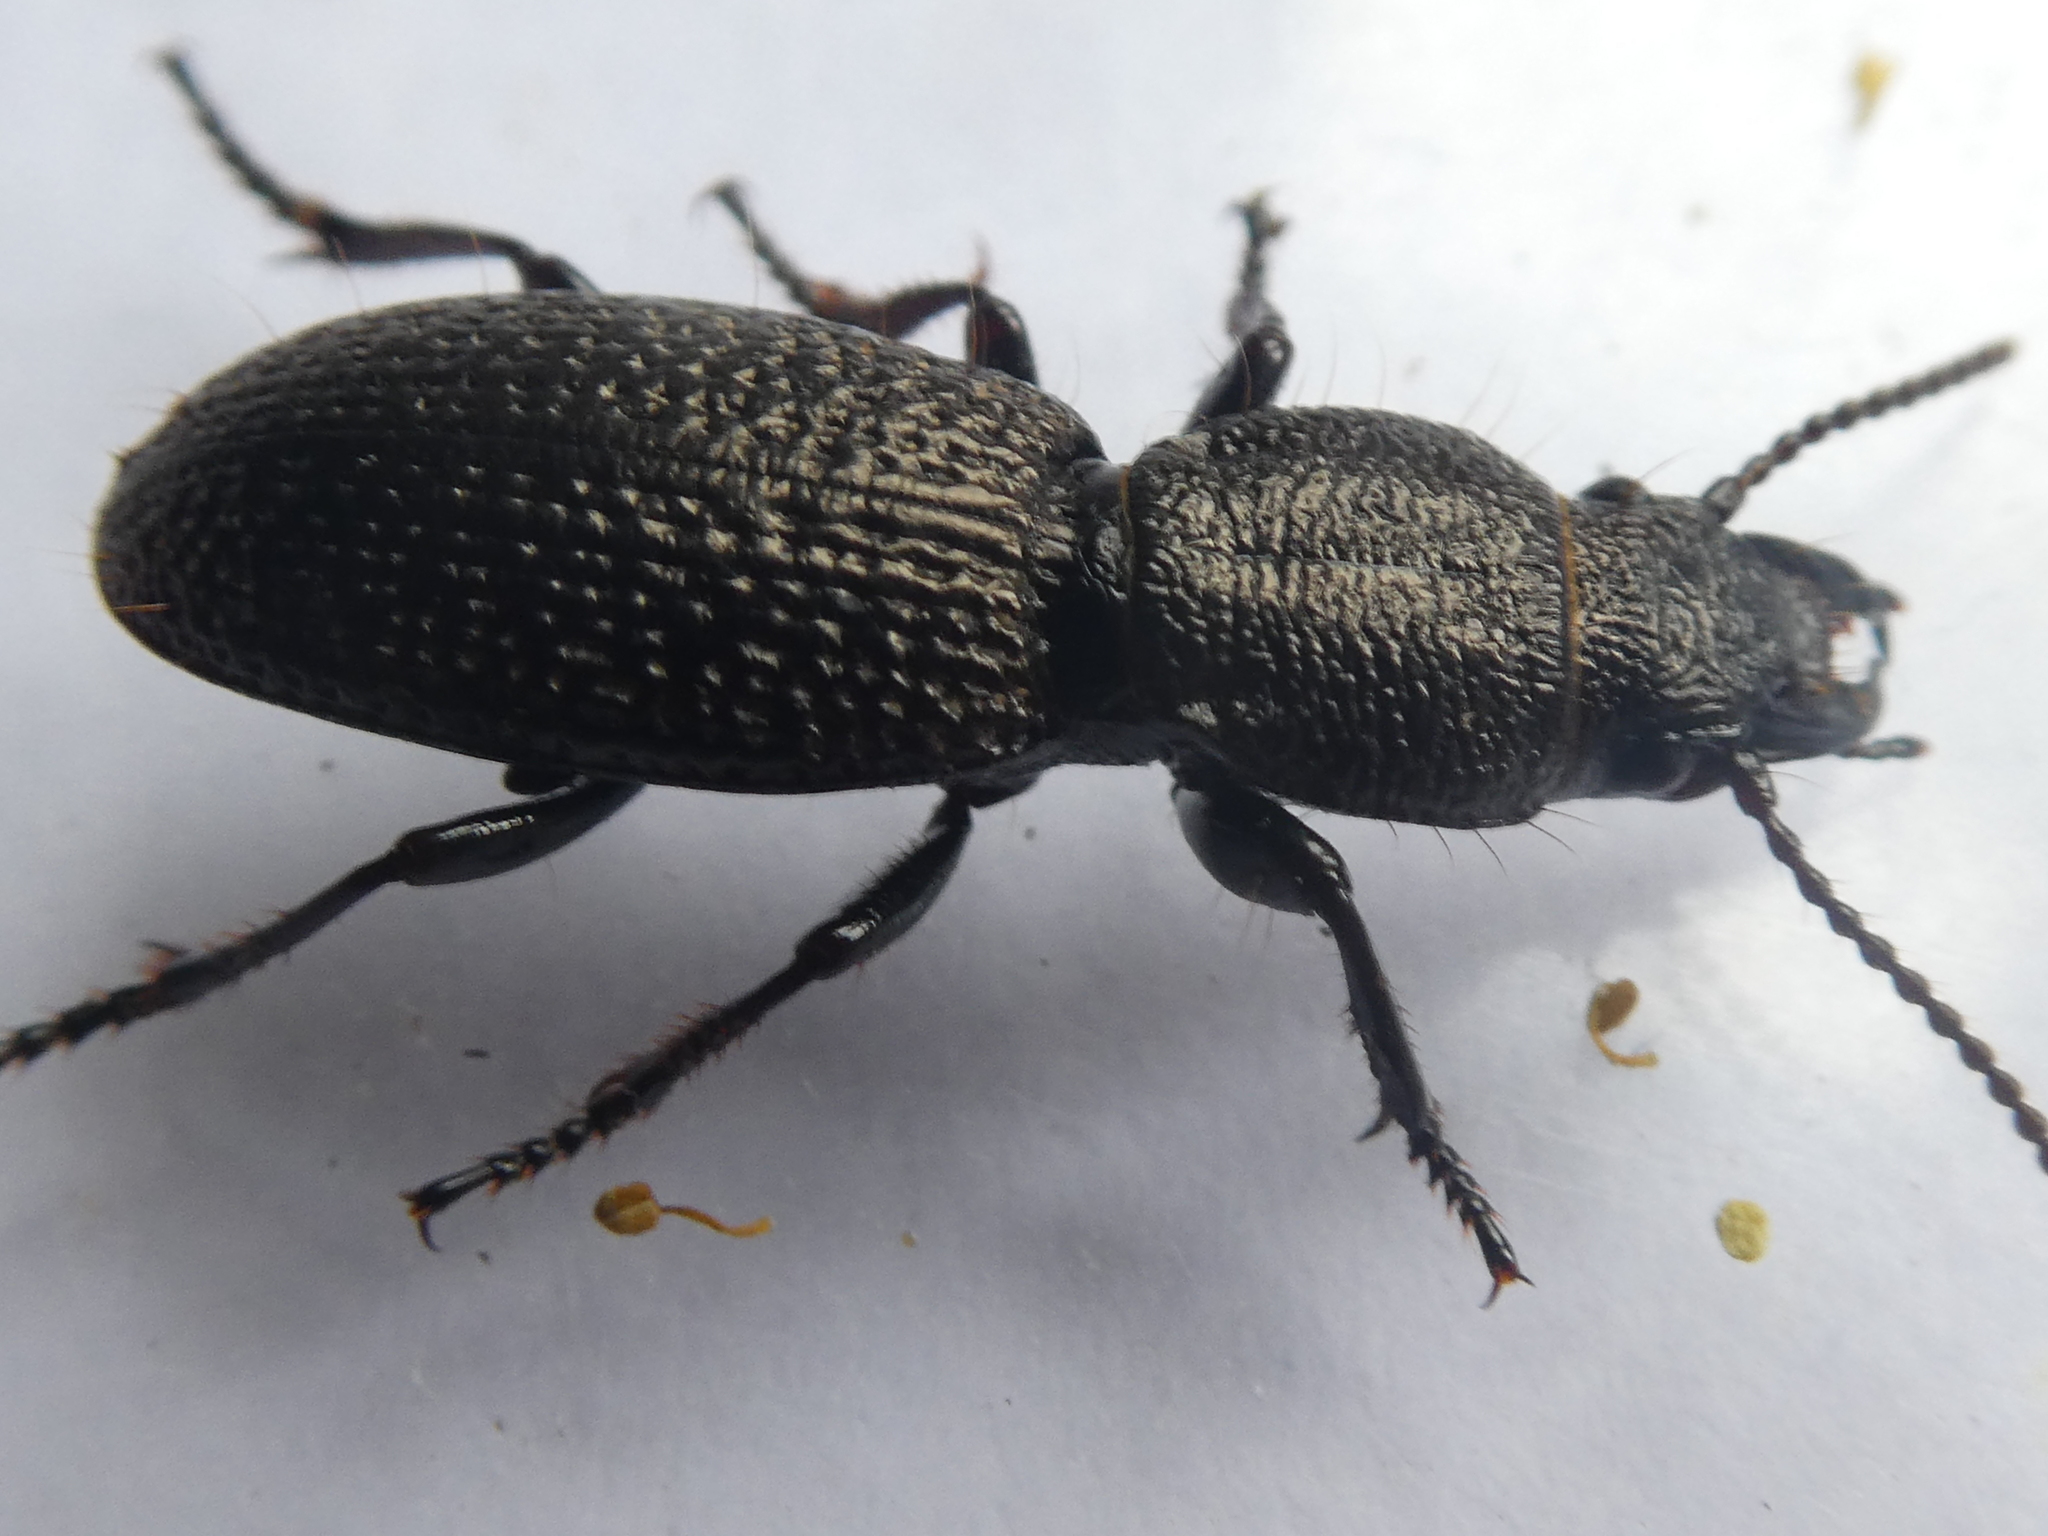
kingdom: Animalia
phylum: Arthropoda
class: Insecta
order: Coleoptera
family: Carabidae
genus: Mecodema
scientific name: Mecodema rugiceps
